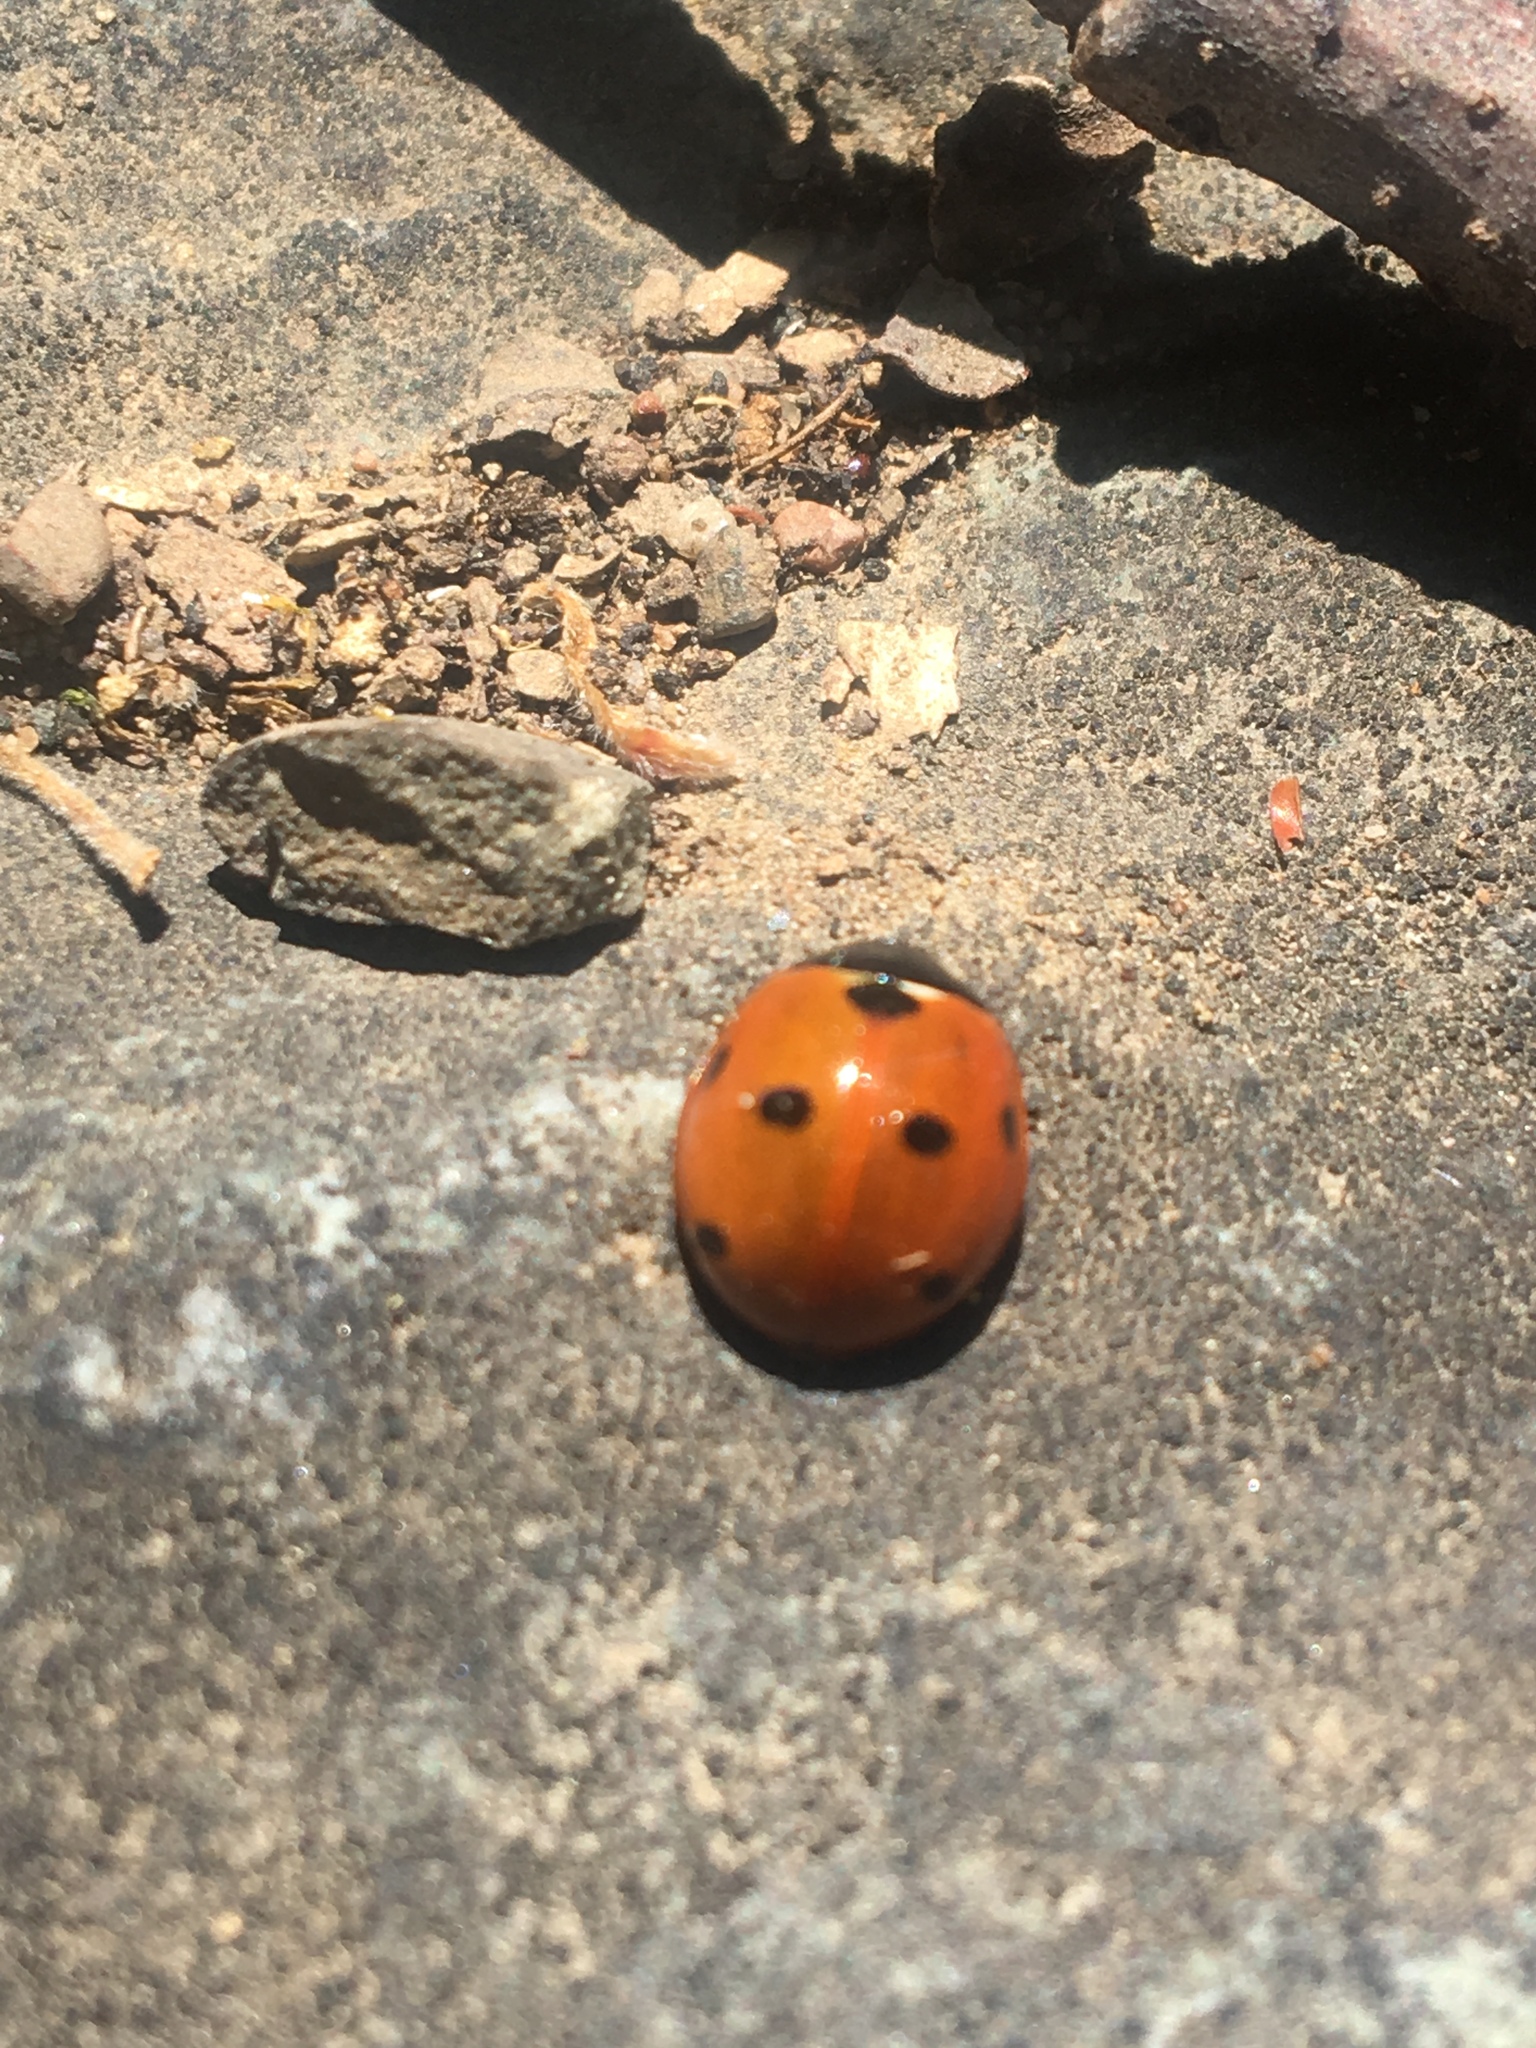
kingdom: Animalia
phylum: Arthropoda
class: Insecta
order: Coleoptera
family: Coccinellidae
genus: Coccinella
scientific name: Coccinella septempunctata
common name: Sevenspotted lady beetle
